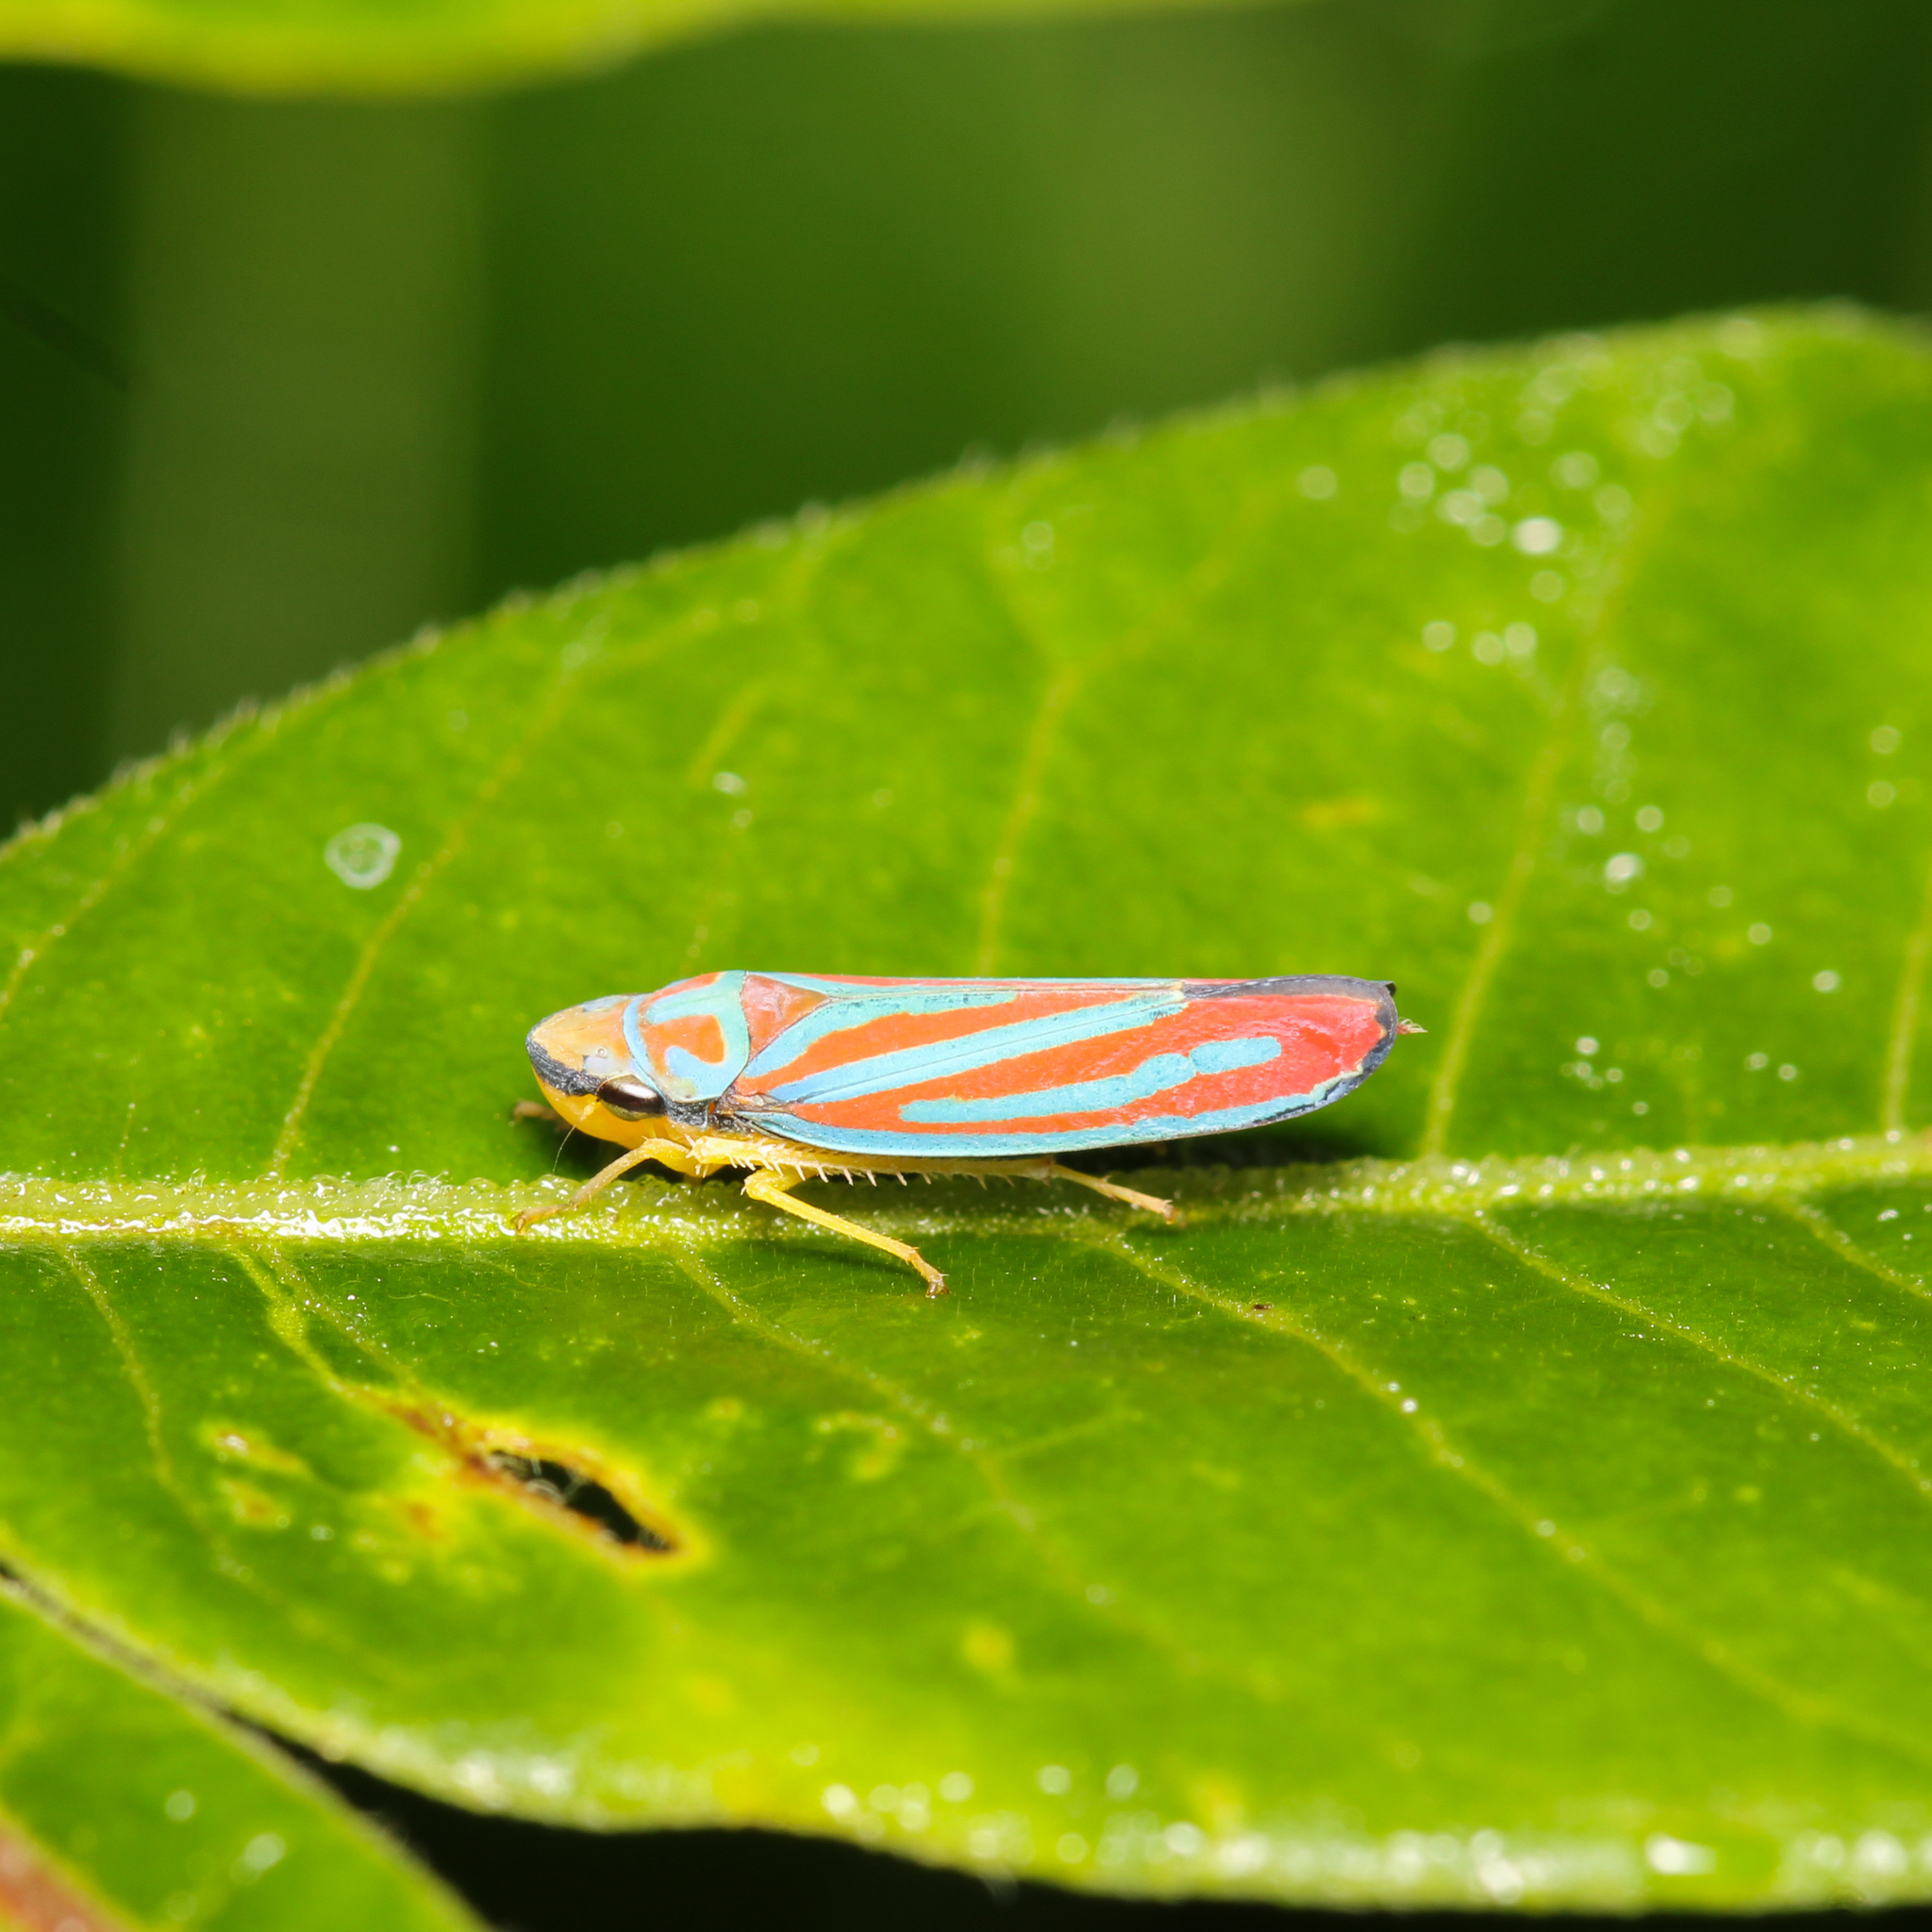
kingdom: Animalia
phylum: Arthropoda
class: Insecta
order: Hemiptera
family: Cicadellidae
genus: Graphocephala
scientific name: Graphocephala coccinea
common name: Candy-striped leafhopper
